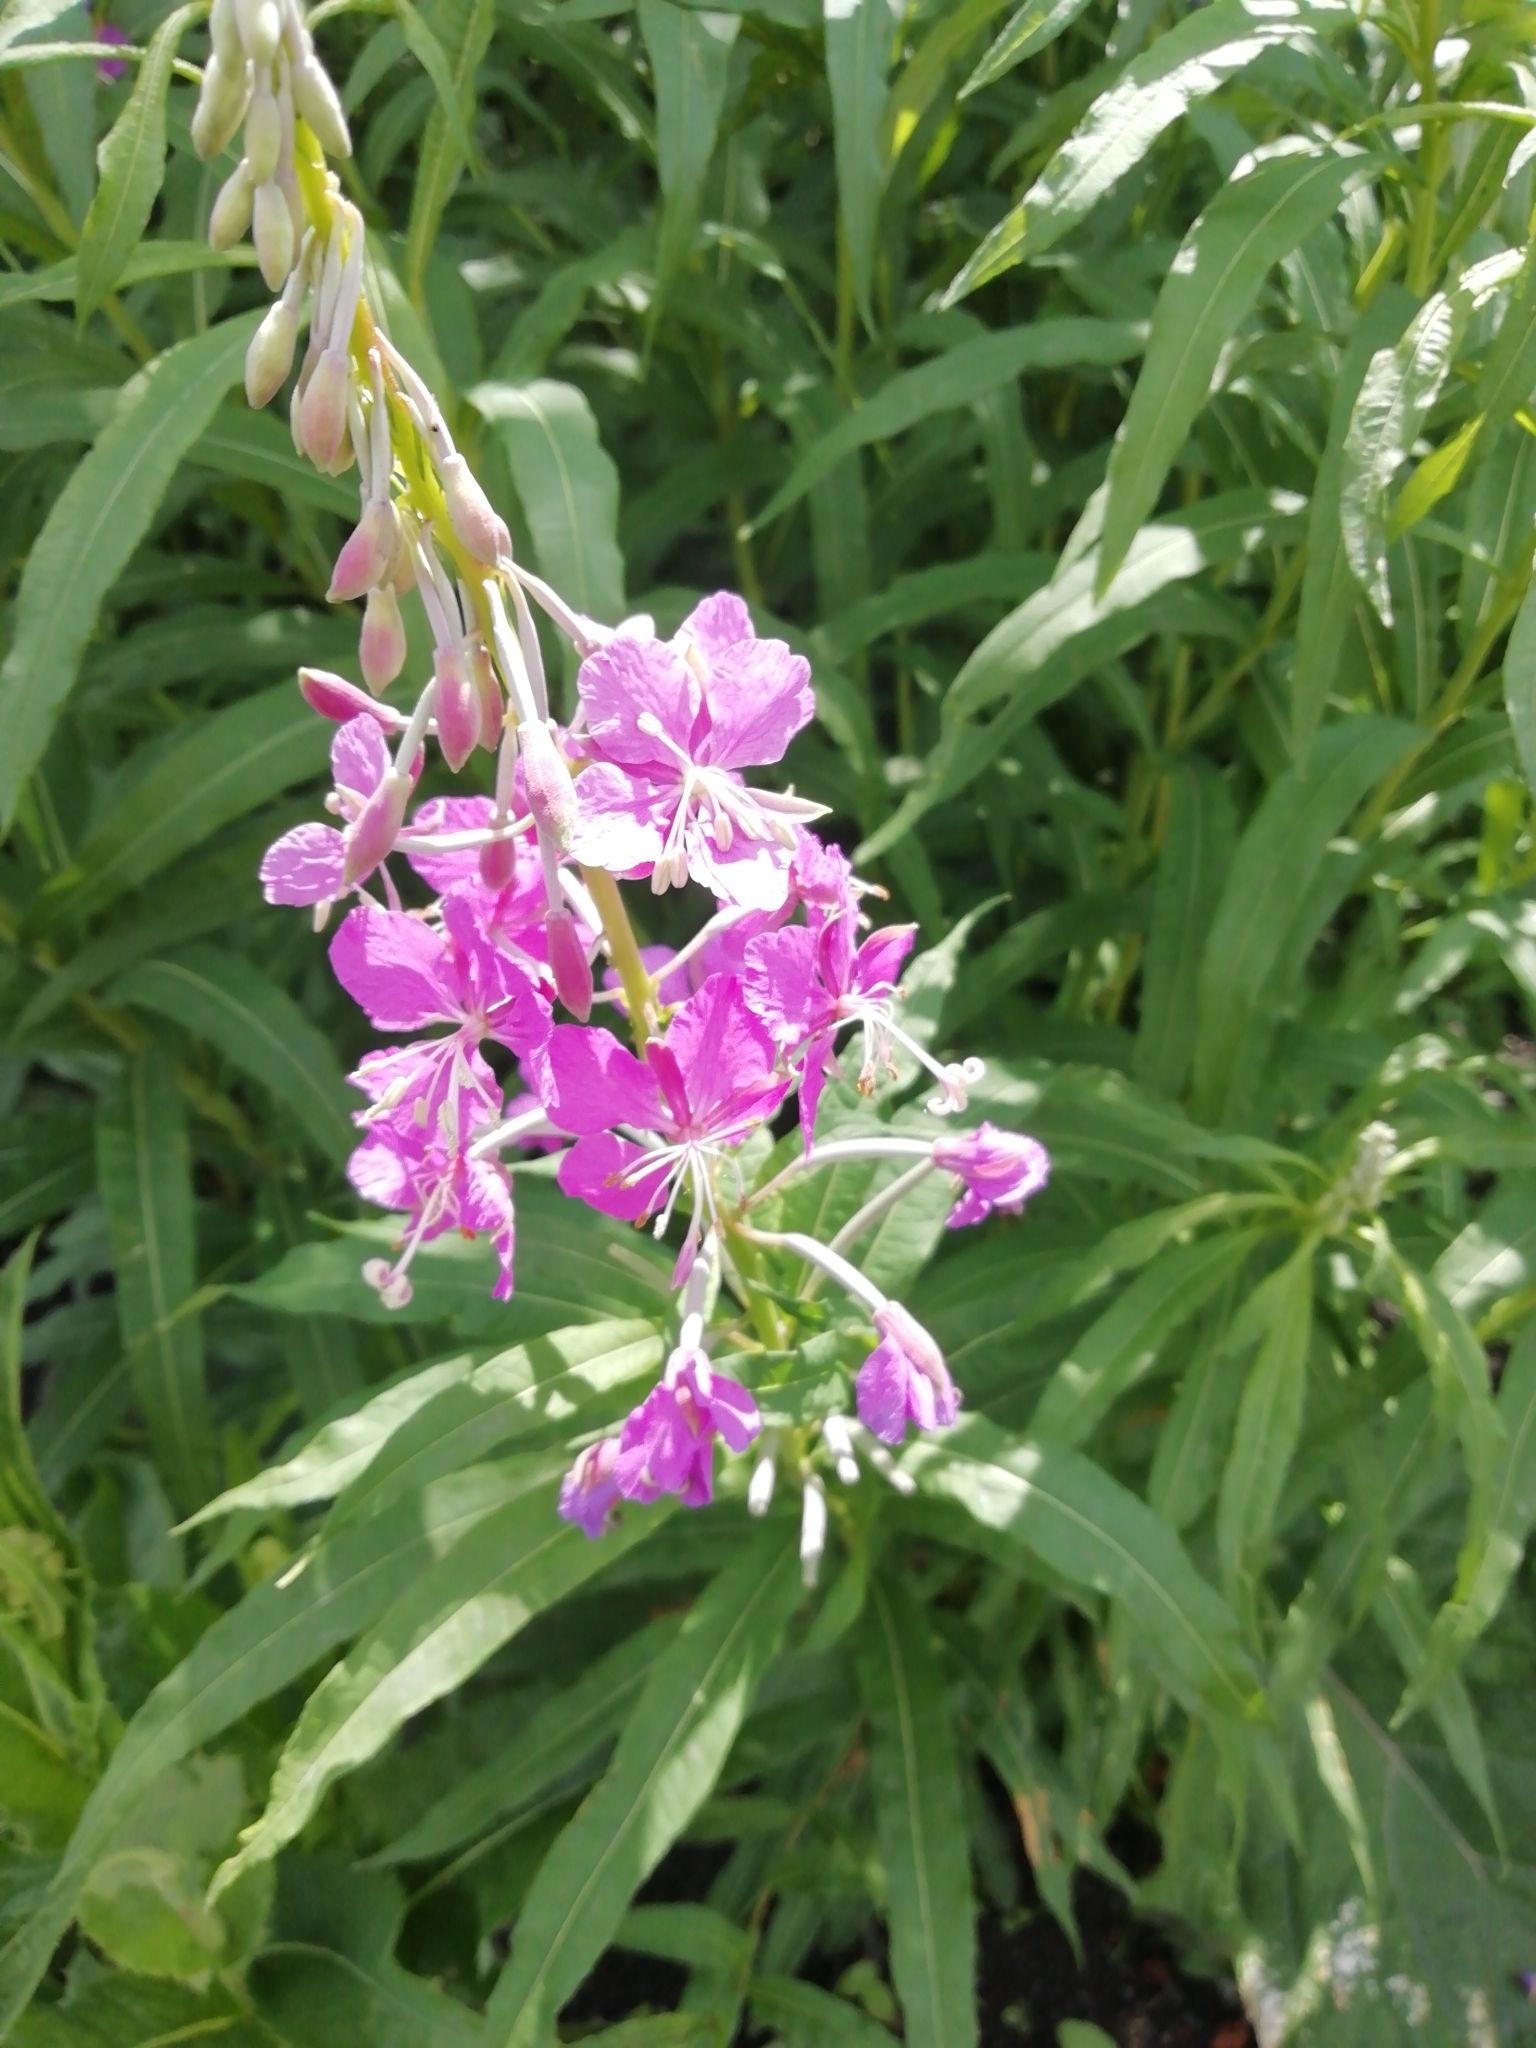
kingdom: Plantae
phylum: Tracheophyta
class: Magnoliopsida
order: Myrtales
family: Onagraceae
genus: Chamaenerion
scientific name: Chamaenerion angustifolium
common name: Fireweed
